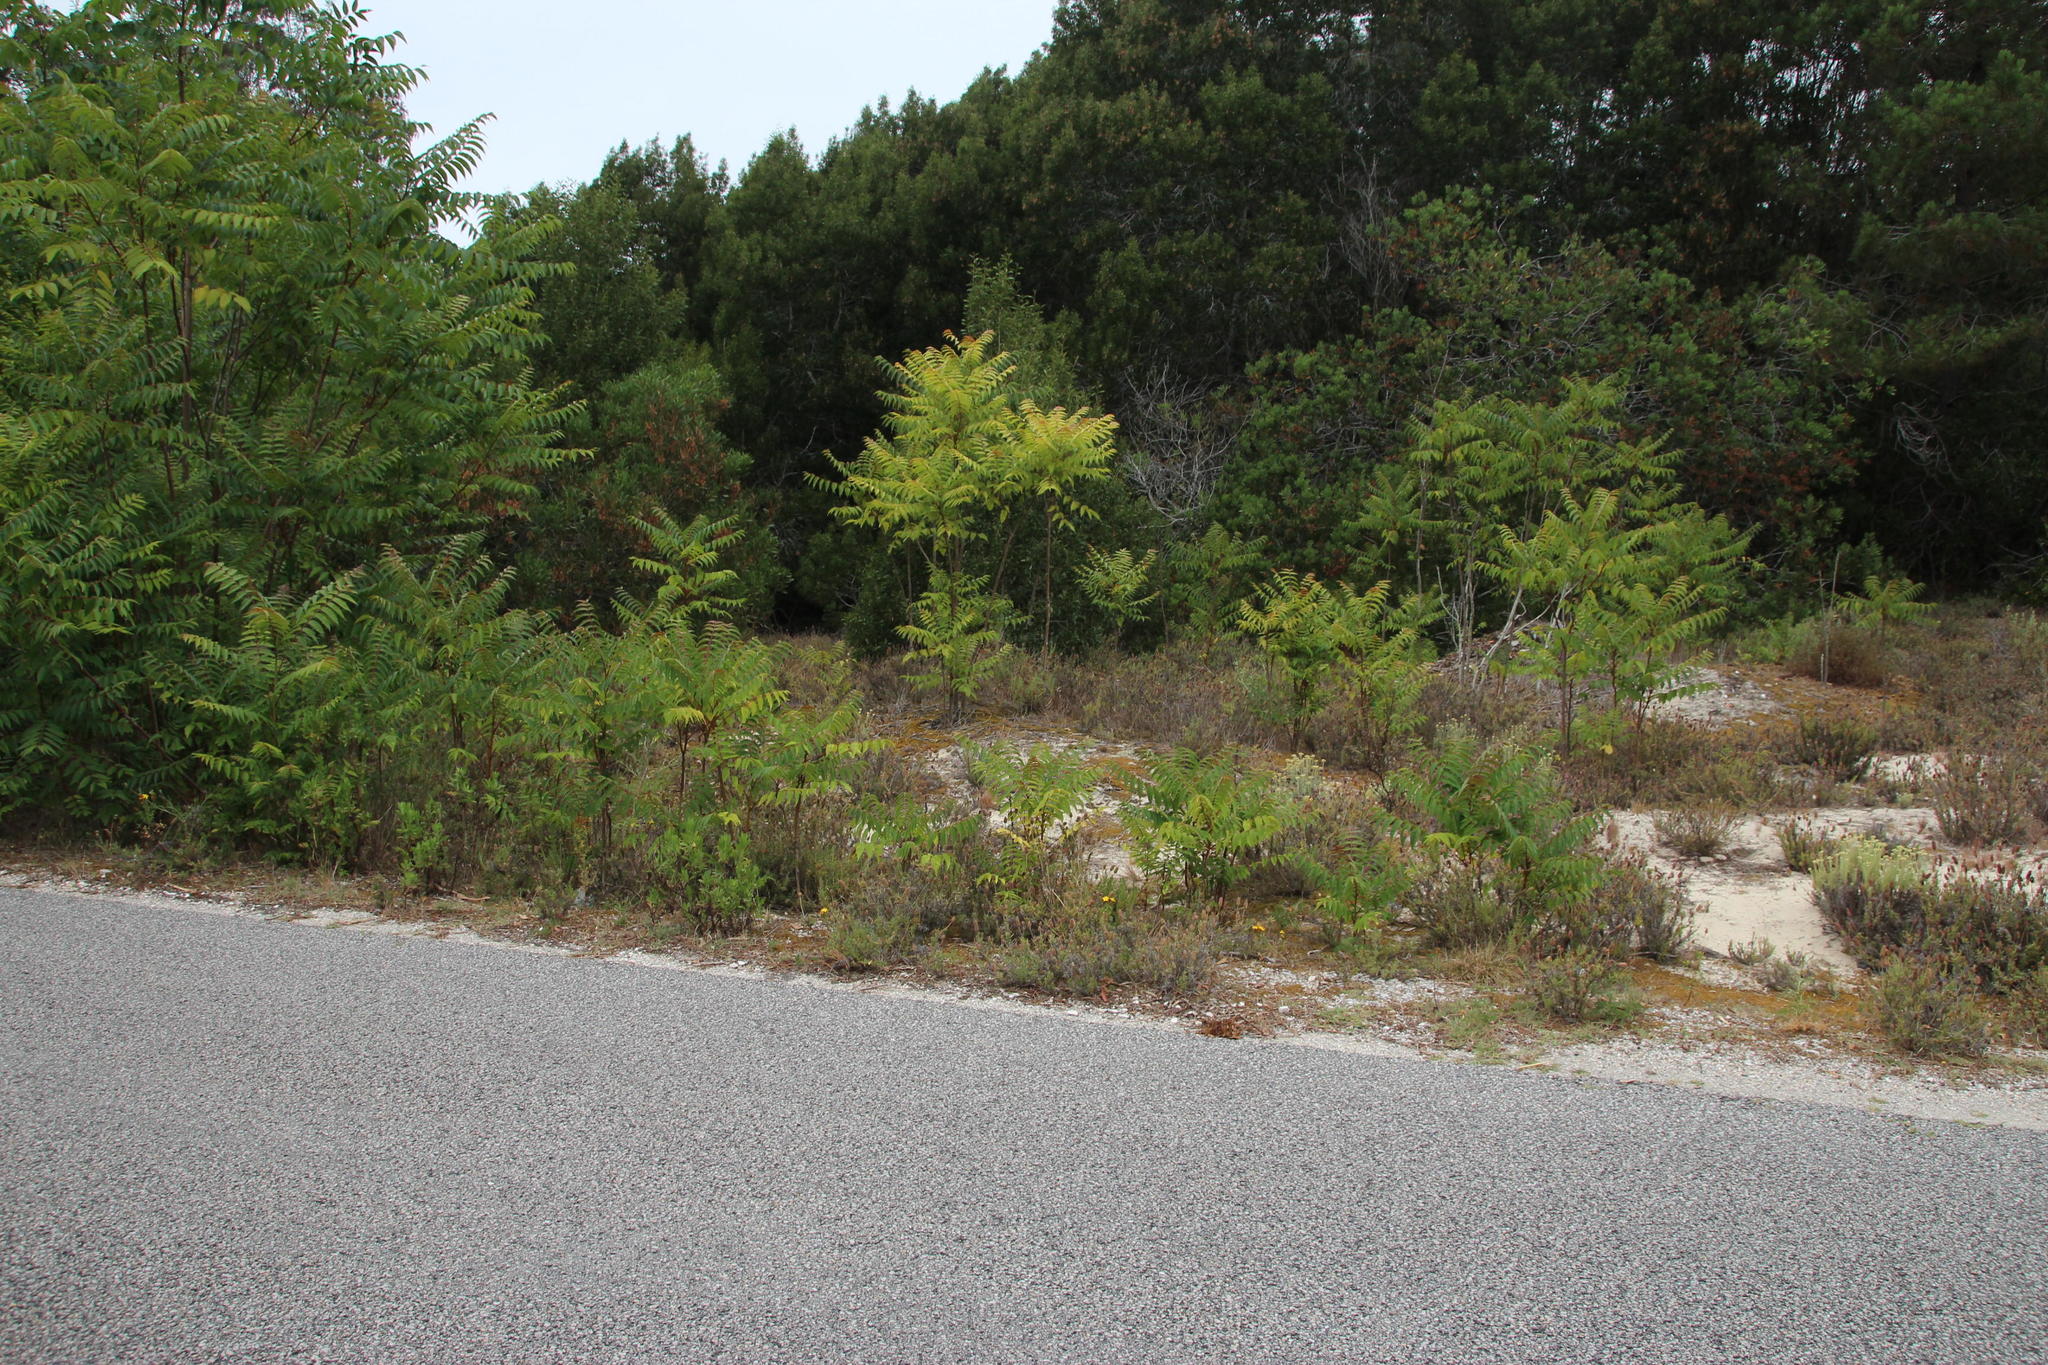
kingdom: Plantae
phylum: Tracheophyta
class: Magnoliopsida
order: Sapindales
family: Simaroubaceae
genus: Ailanthus
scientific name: Ailanthus altissima
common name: Tree-of-heaven
